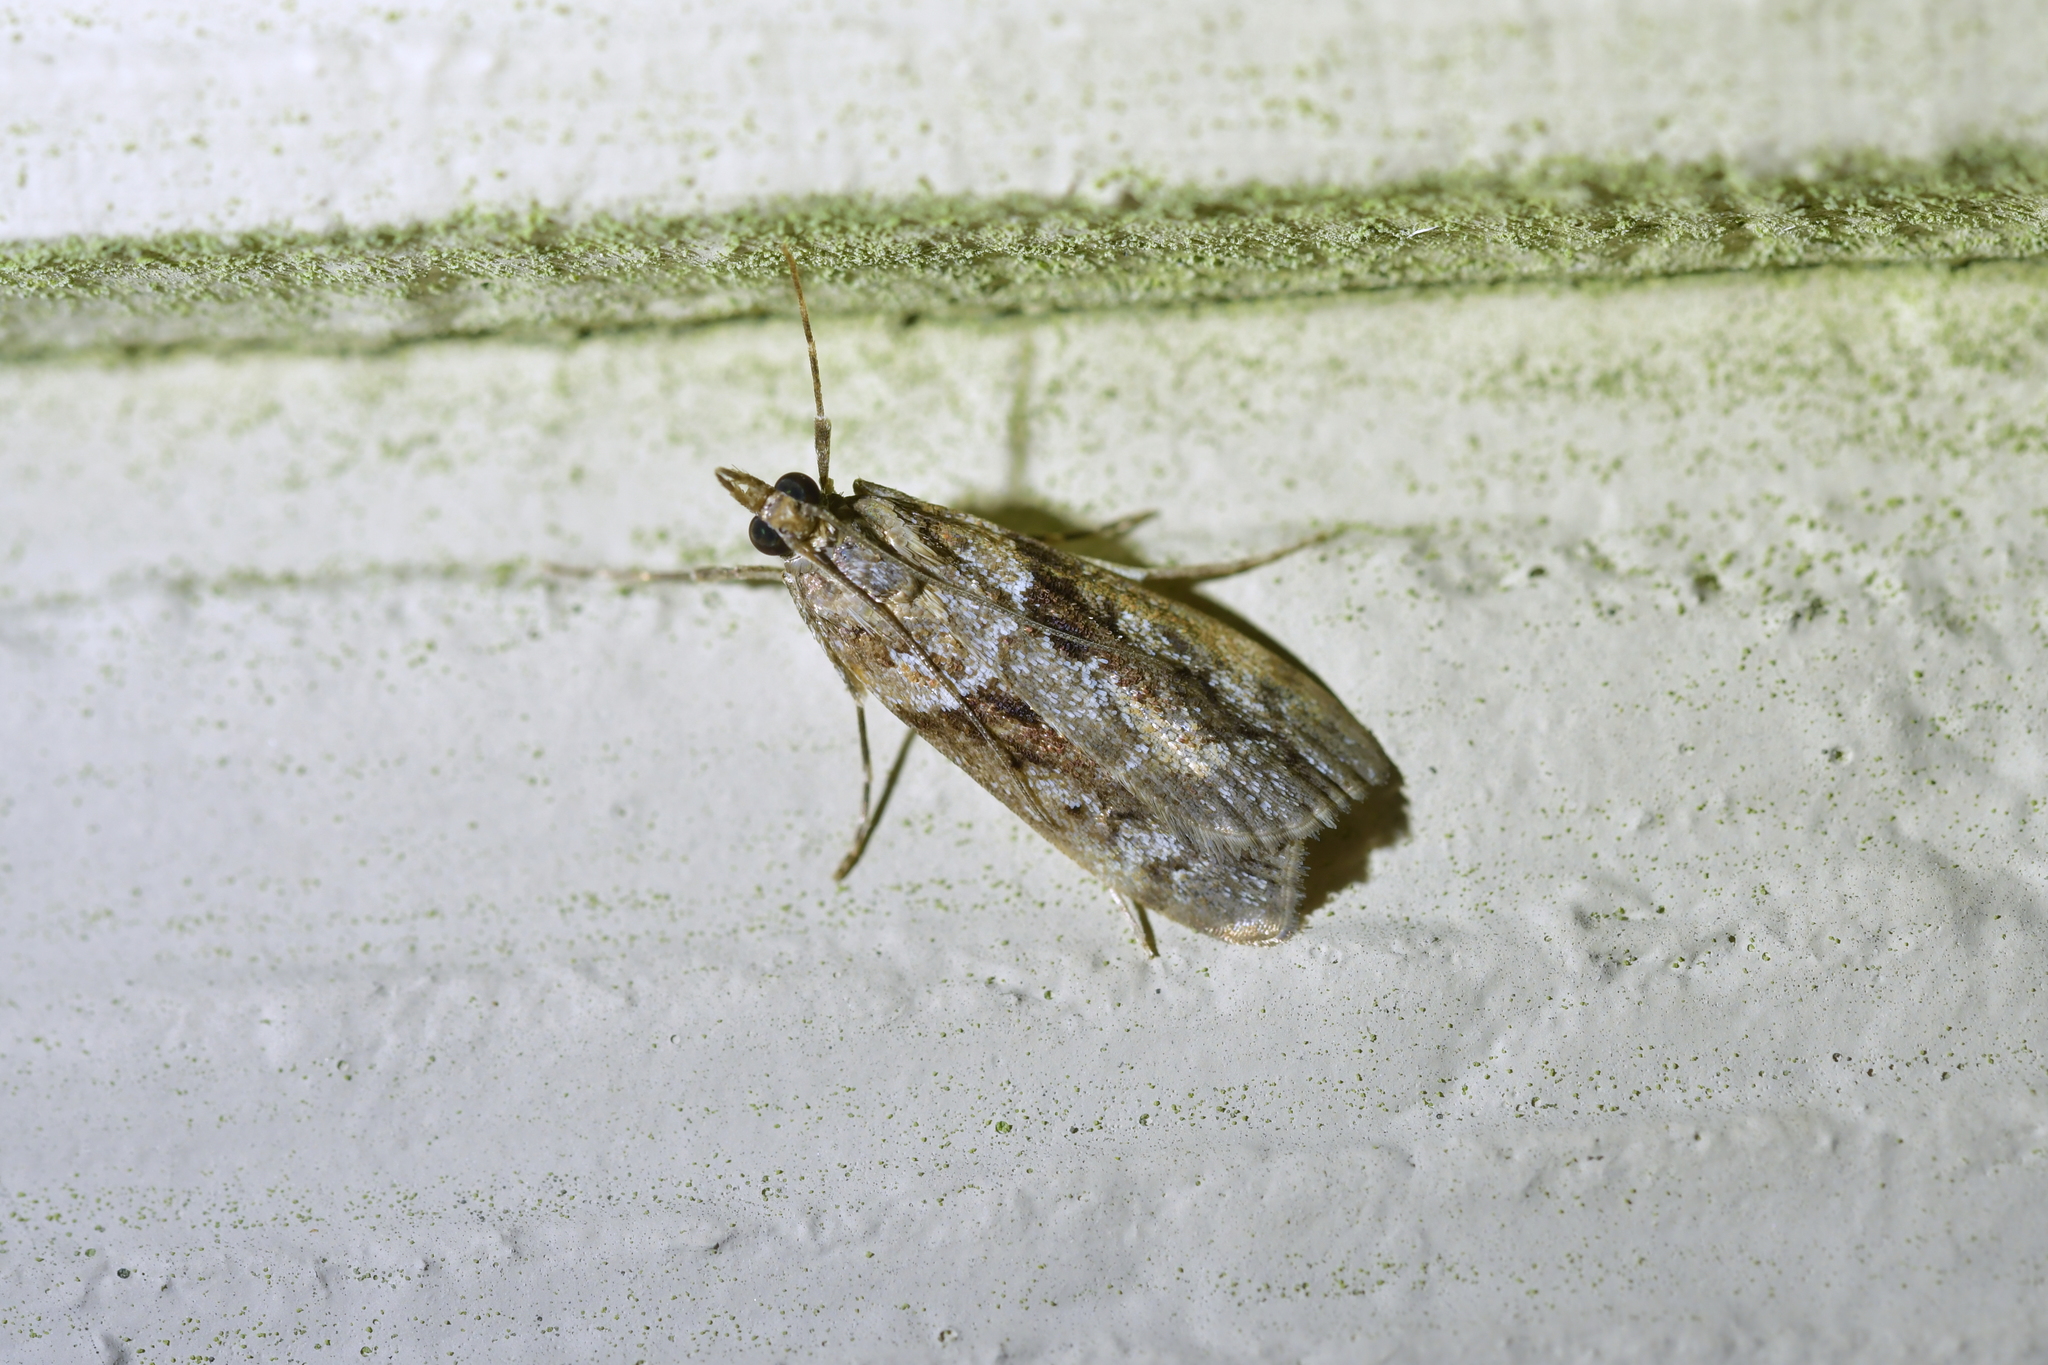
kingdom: Animalia
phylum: Arthropoda
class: Insecta
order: Lepidoptera
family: Crambidae
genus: Eudonia
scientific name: Eudonia submarginalis
